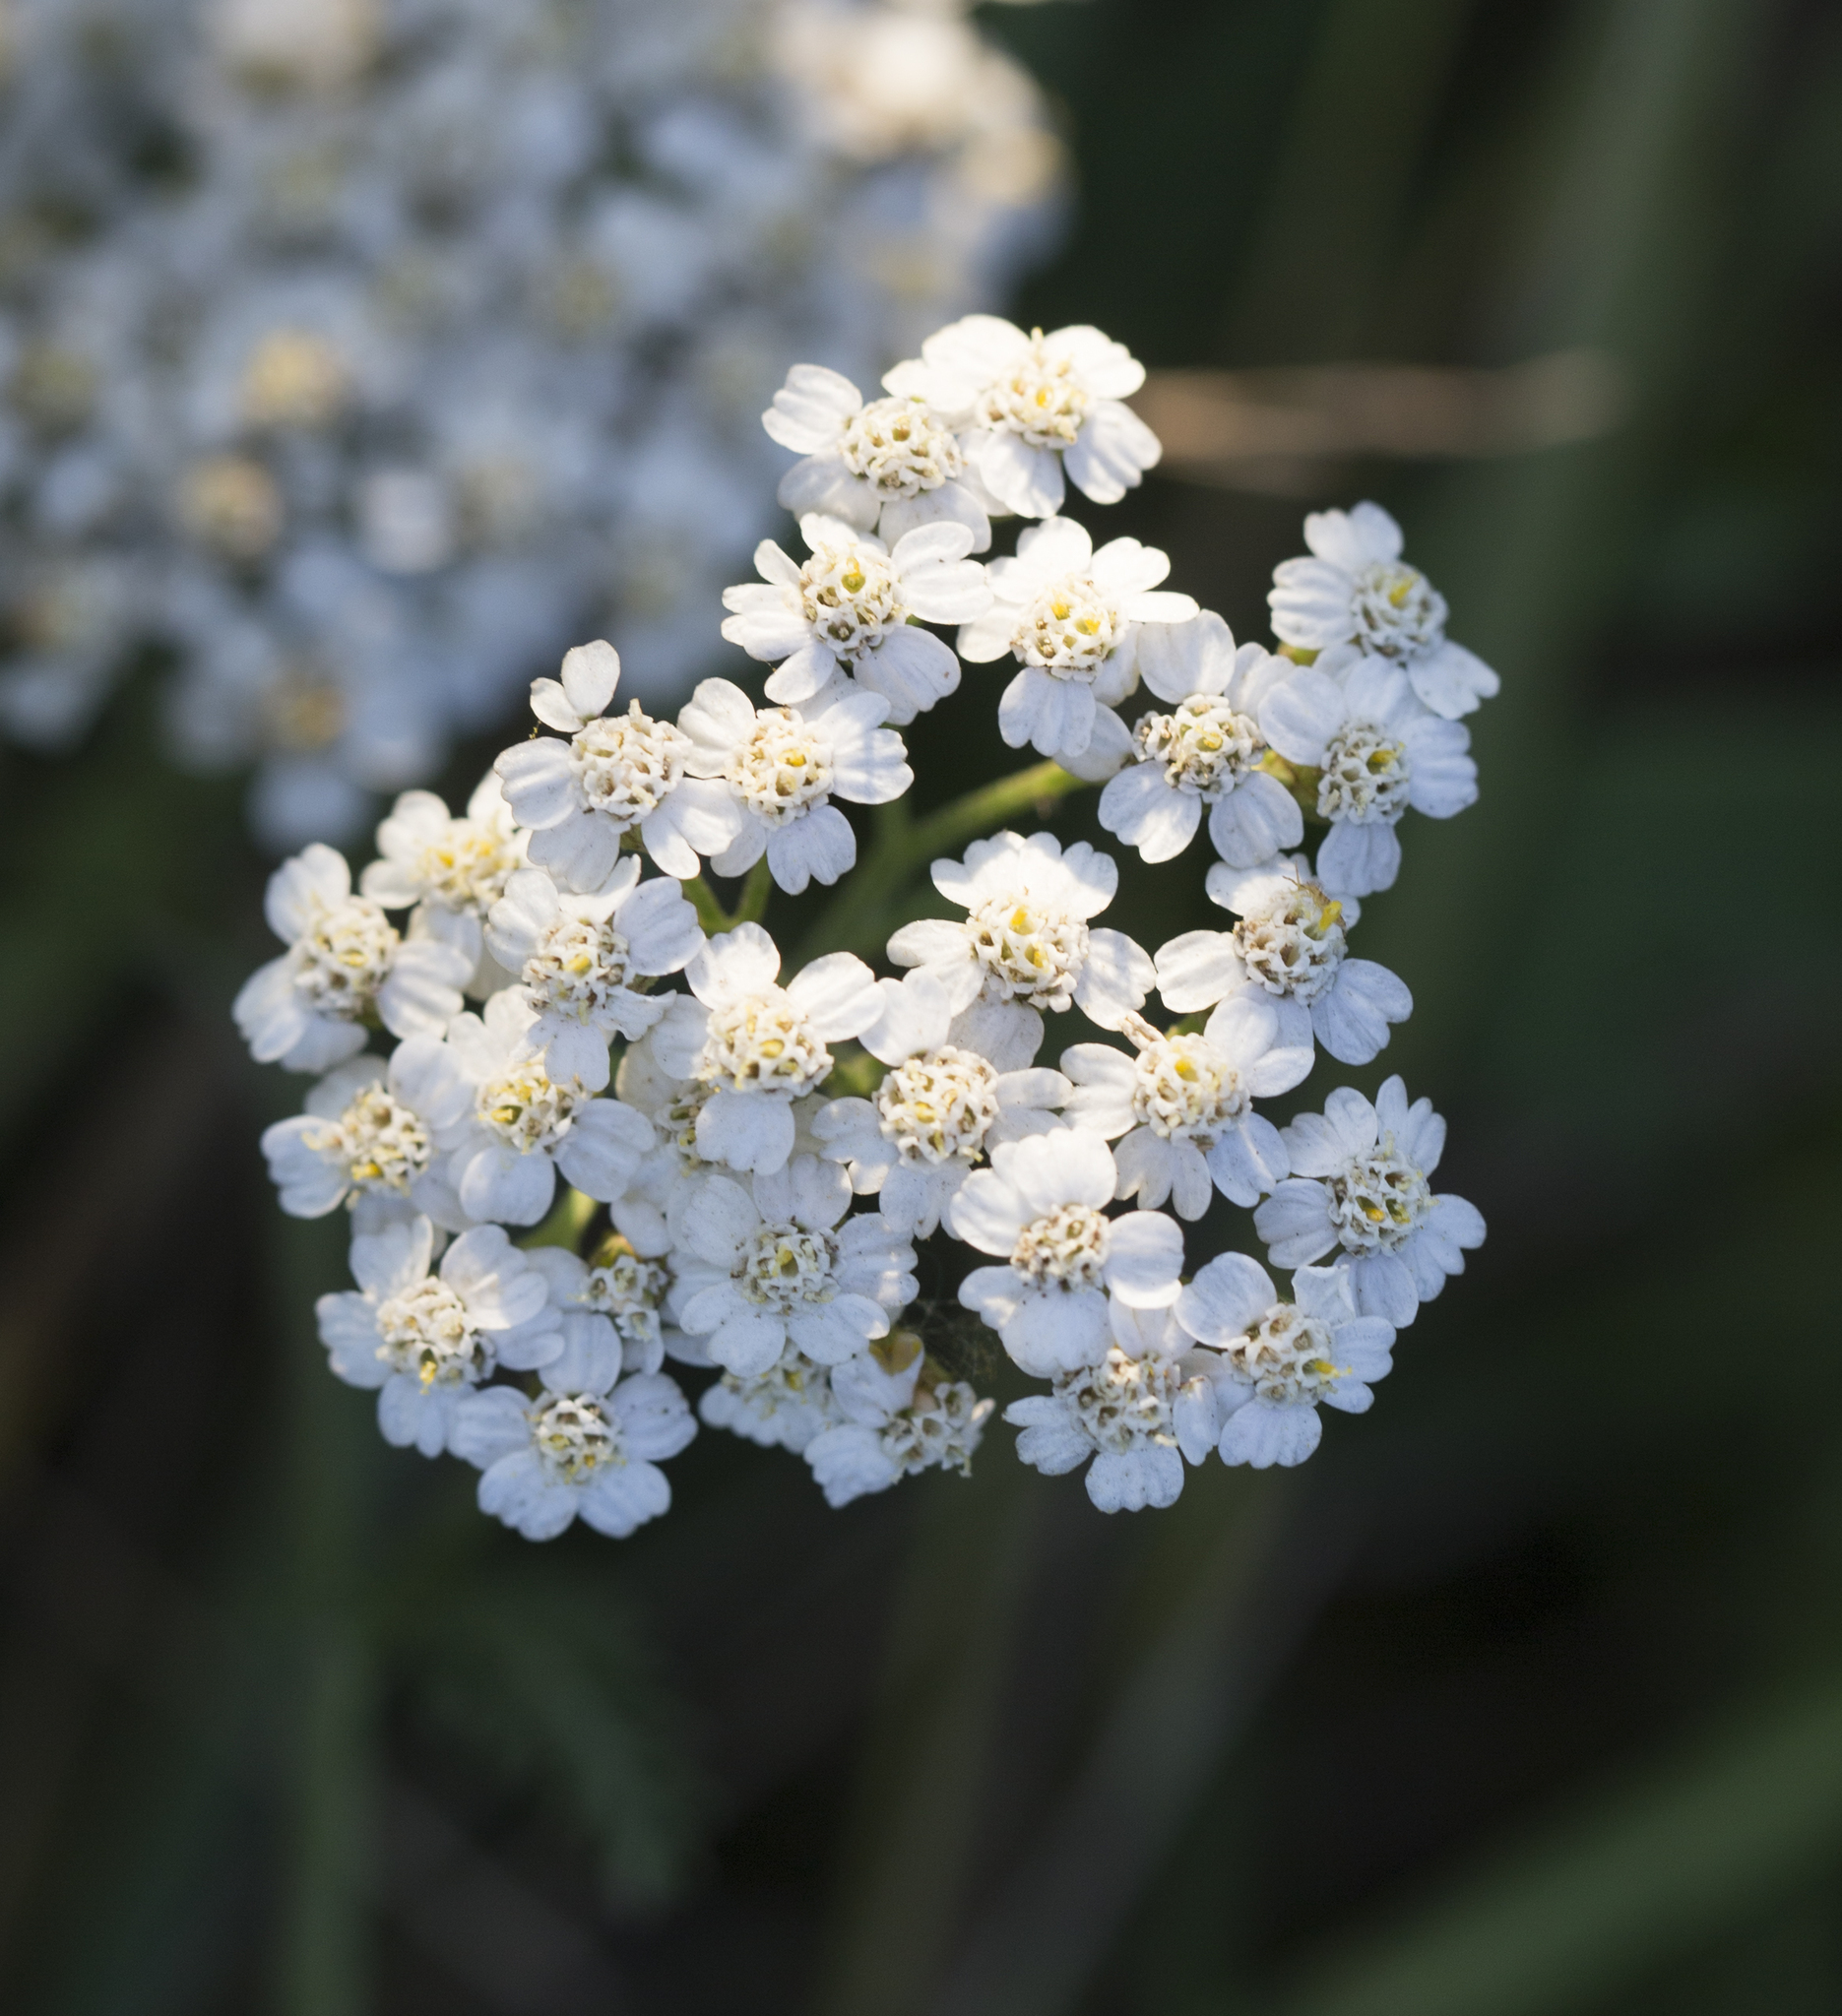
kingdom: Plantae
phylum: Tracheophyta
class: Magnoliopsida
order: Asterales
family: Asteraceae
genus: Achillea
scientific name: Achillea millefolium
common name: Yarrow
